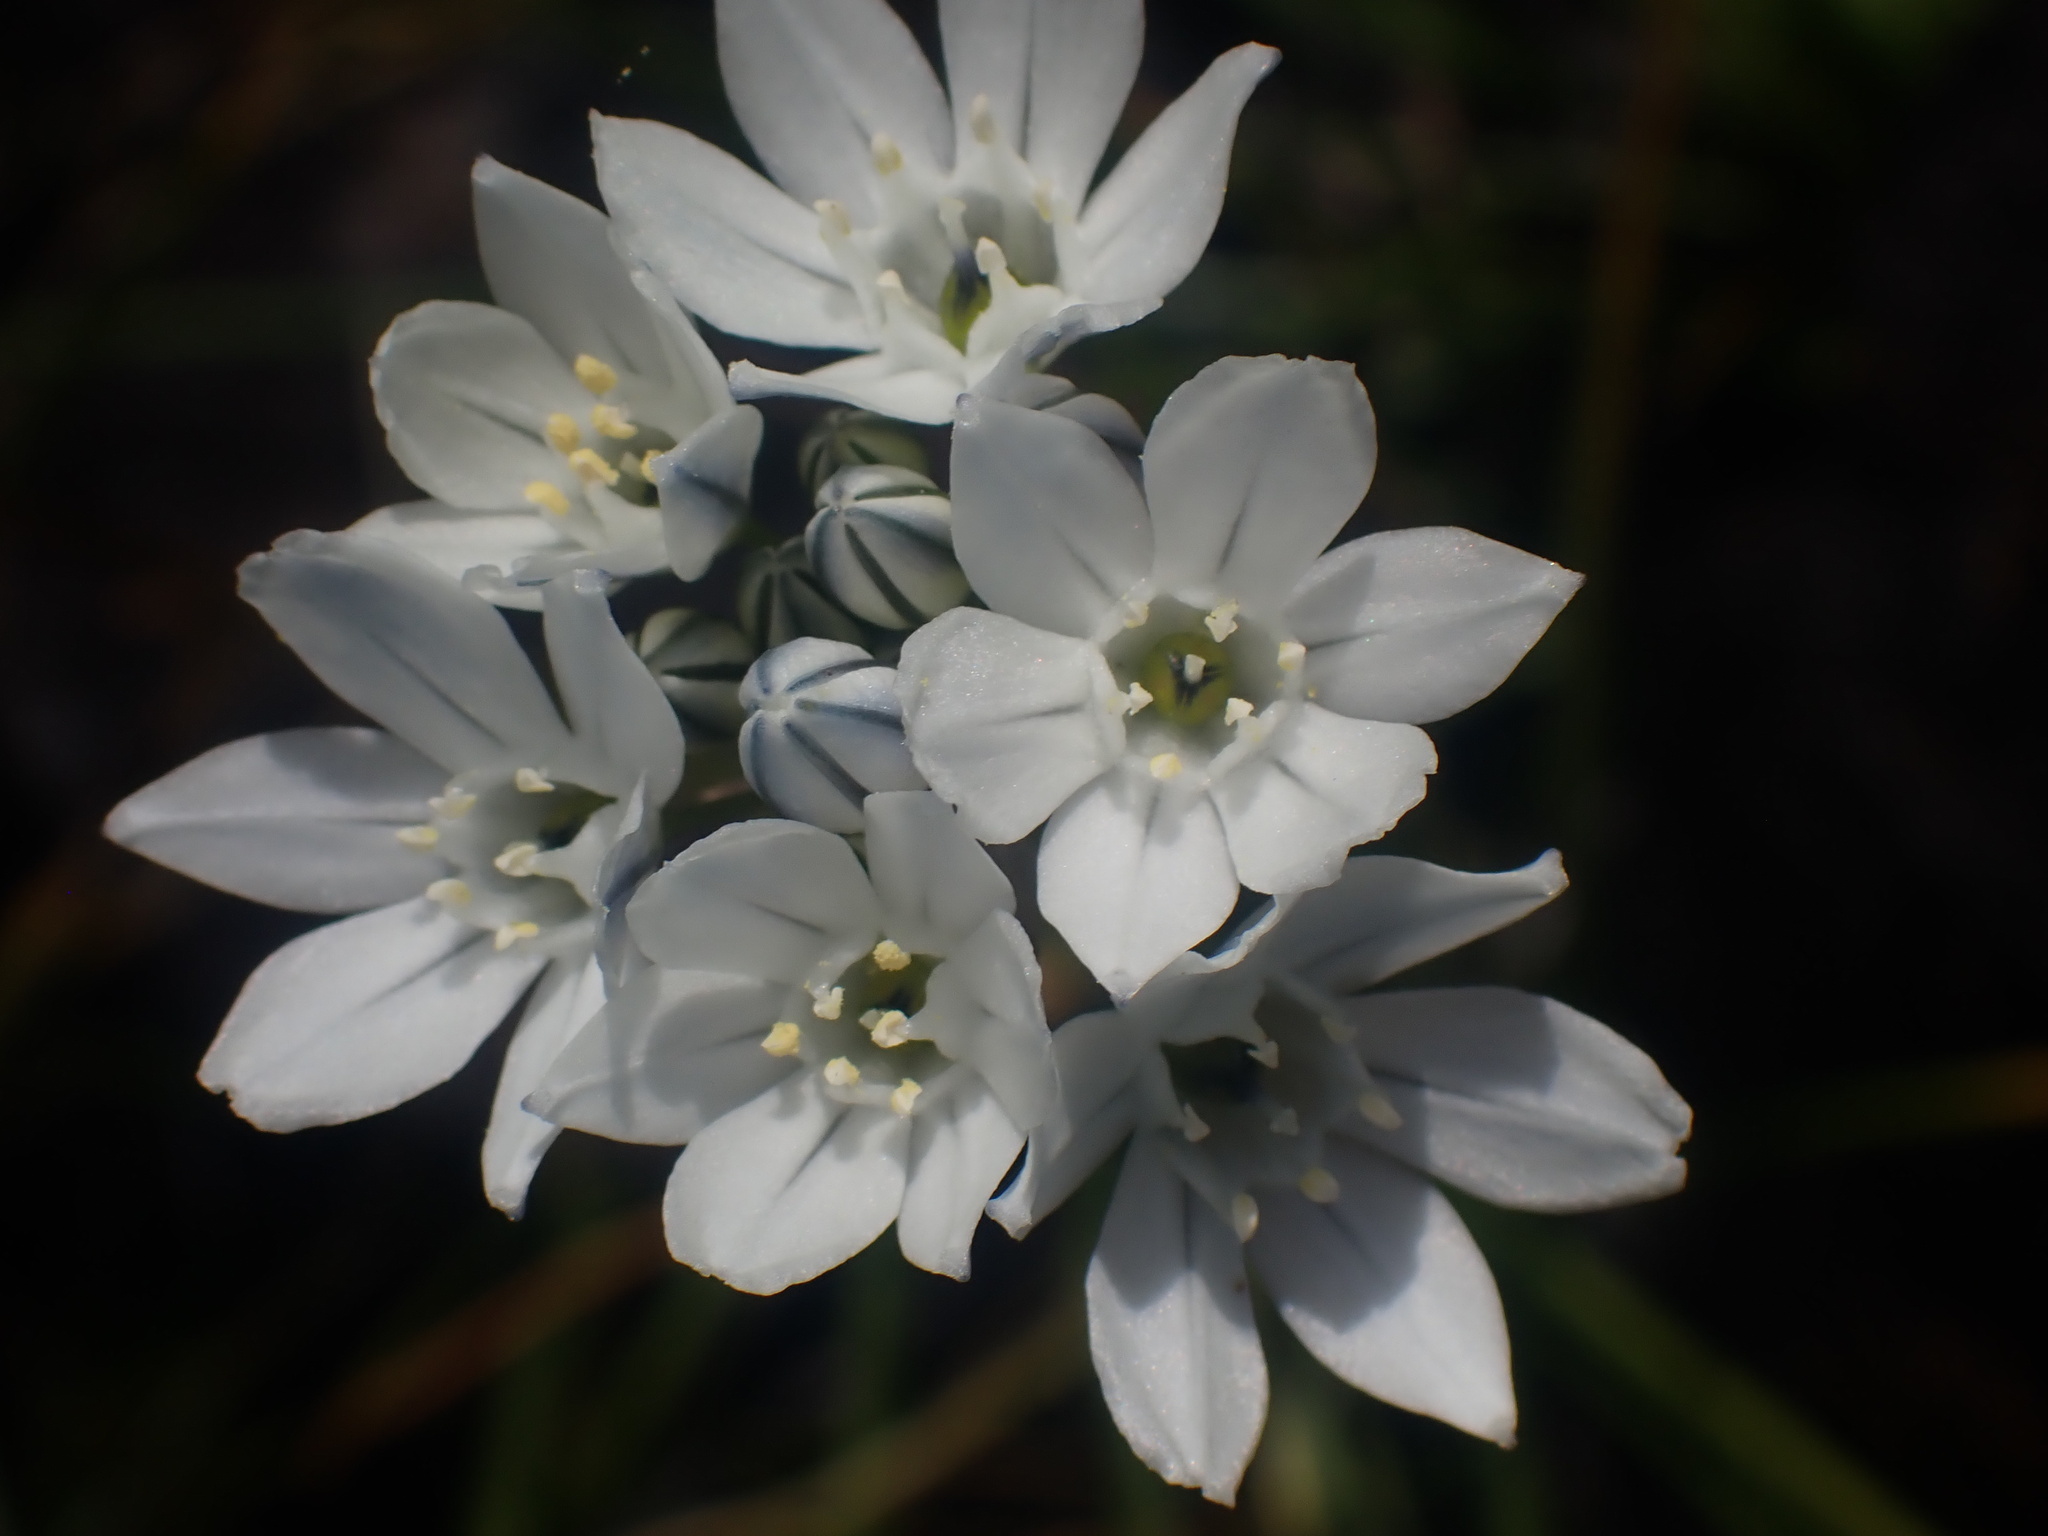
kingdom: Plantae
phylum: Tracheophyta
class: Liliopsida
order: Asparagales
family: Asparagaceae
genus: Triteleia
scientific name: Triteleia hyacinthina
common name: White brodiaea
